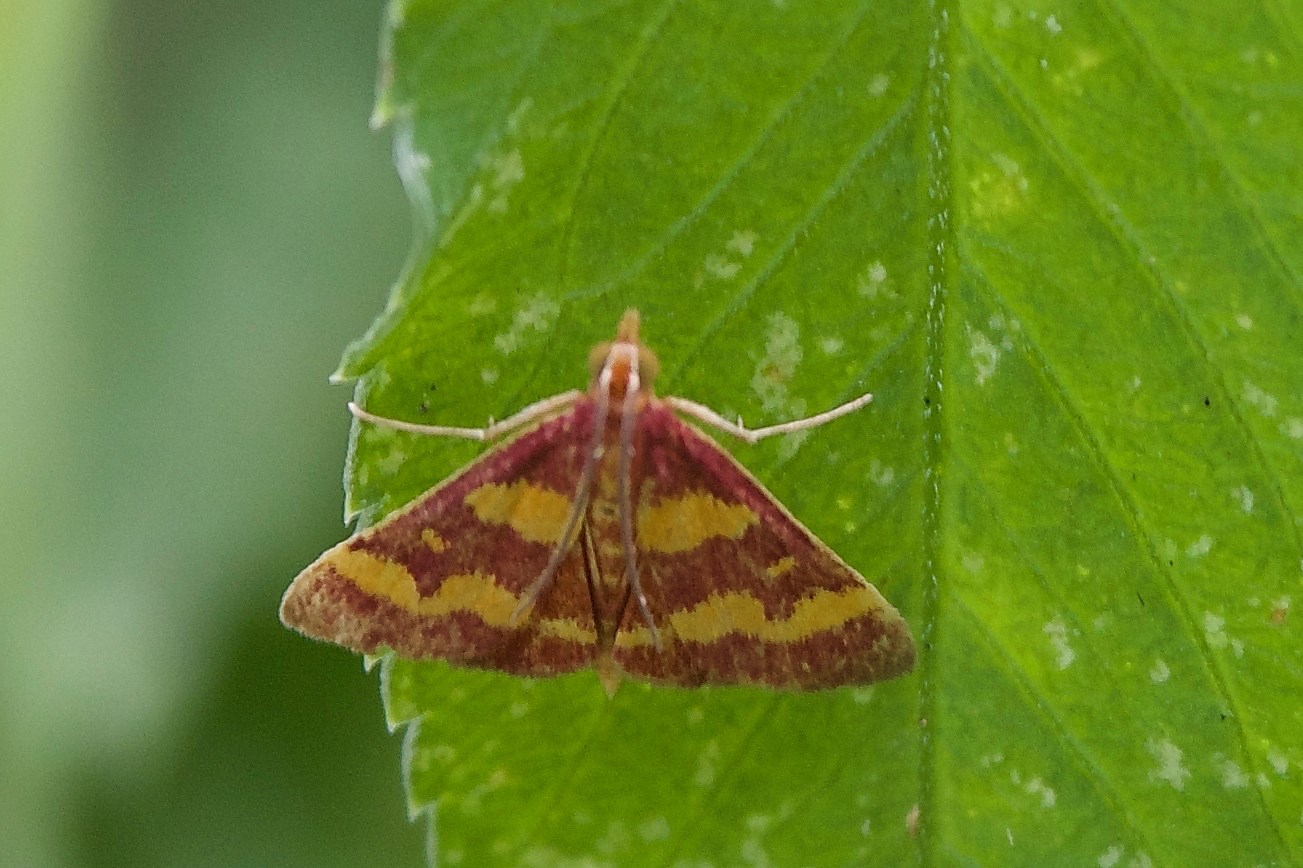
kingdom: Animalia
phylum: Arthropoda
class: Insecta
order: Lepidoptera
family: Crambidae
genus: Pyrausta
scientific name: Pyrausta tyralis
